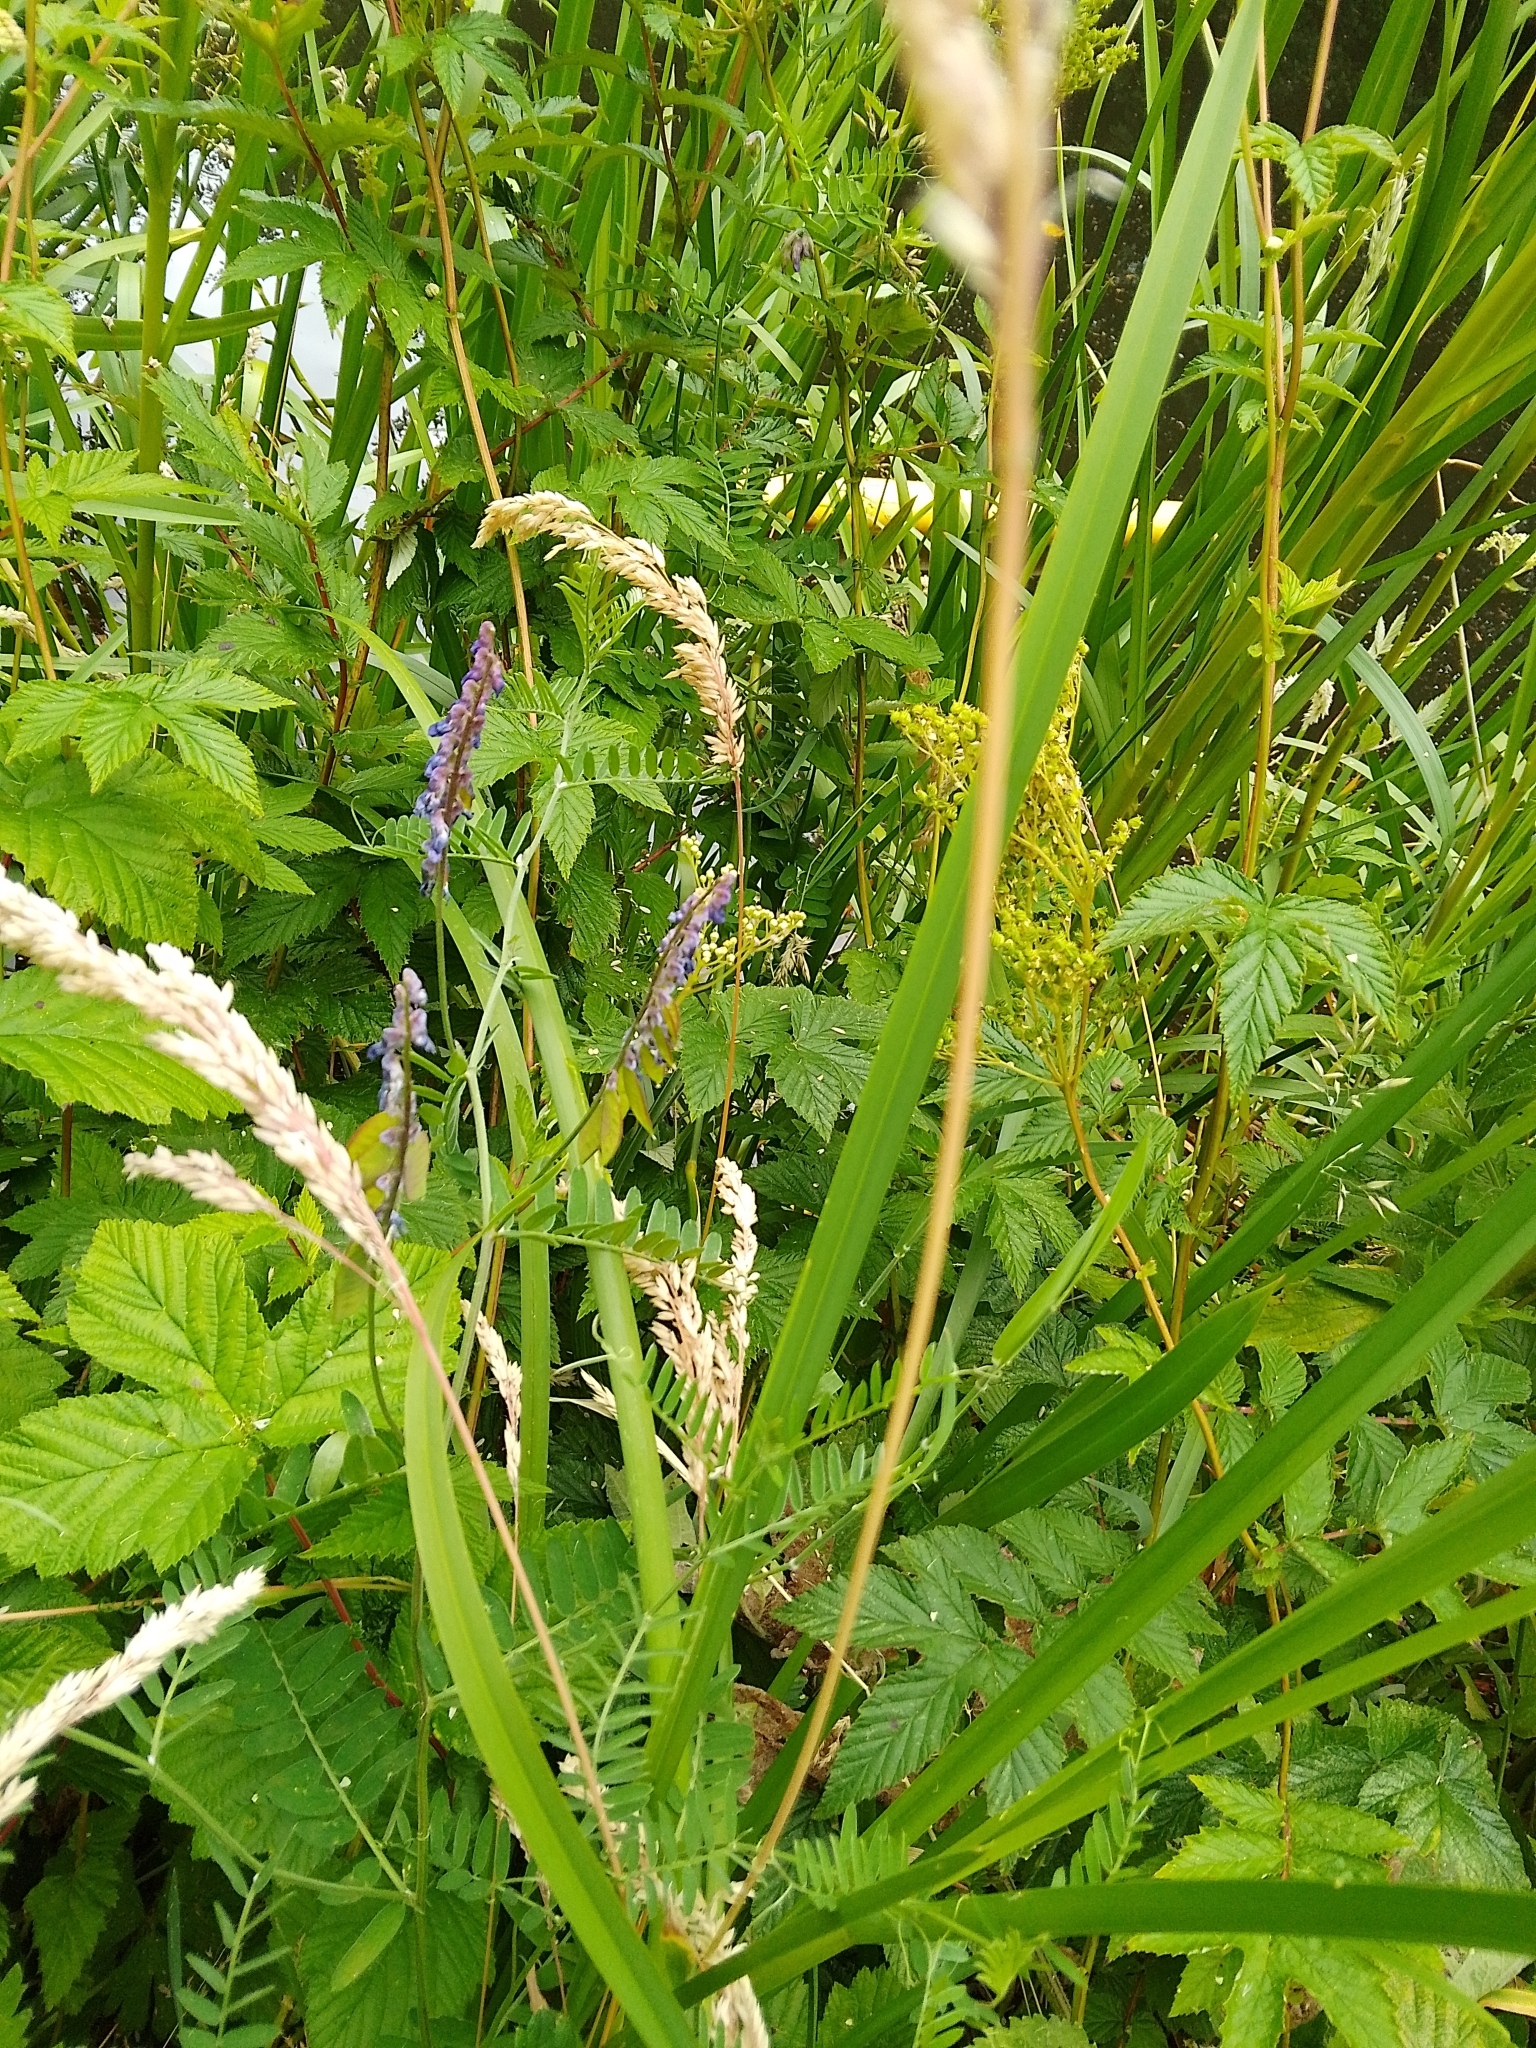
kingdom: Plantae
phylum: Tracheophyta
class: Magnoliopsida
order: Fabales
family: Fabaceae
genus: Vicia
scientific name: Vicia cracca
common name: Bird vetch
